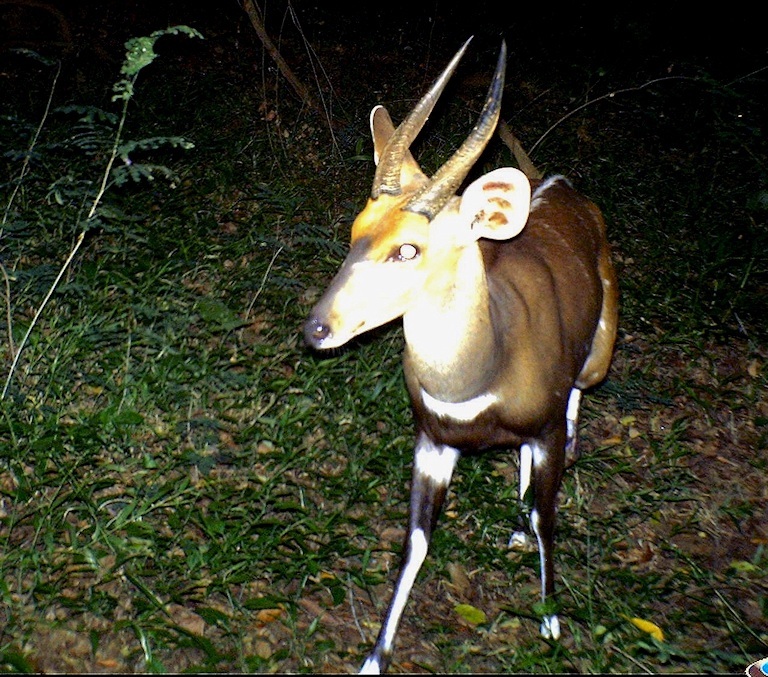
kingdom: Animalia
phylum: Chordata
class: Mammalia
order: Artiodactyla
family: Bovidae
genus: Tragelaphus
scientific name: Tragelaphus scriptus
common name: Bushbuck
